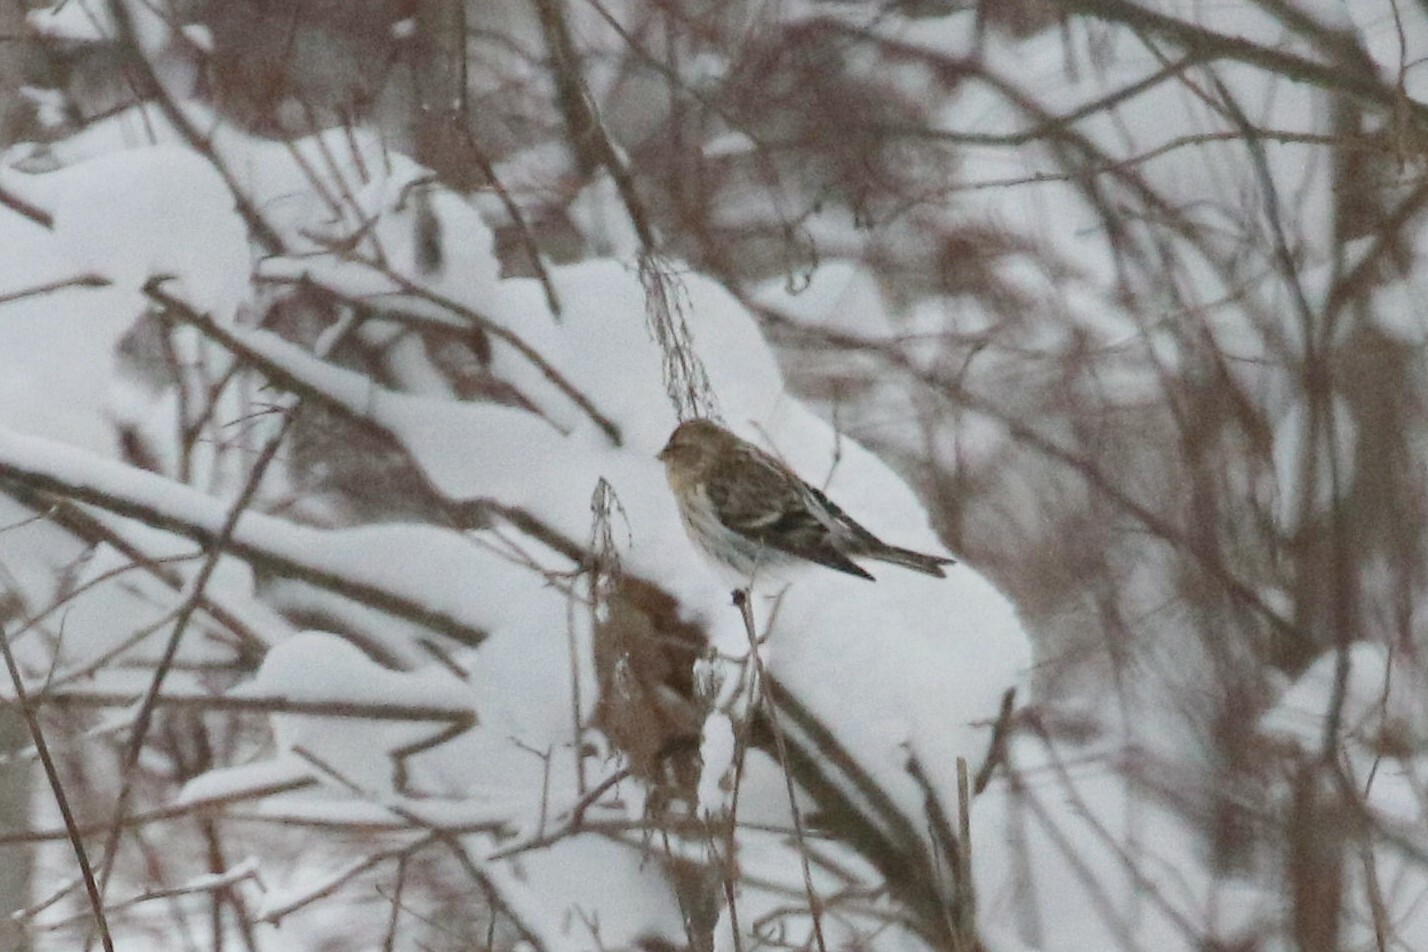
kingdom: Animalia
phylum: Chordata
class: Aves
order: Passeriformes
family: Fringillidae
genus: Acanthis
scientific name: Acanthis flammea
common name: Common redpoll
